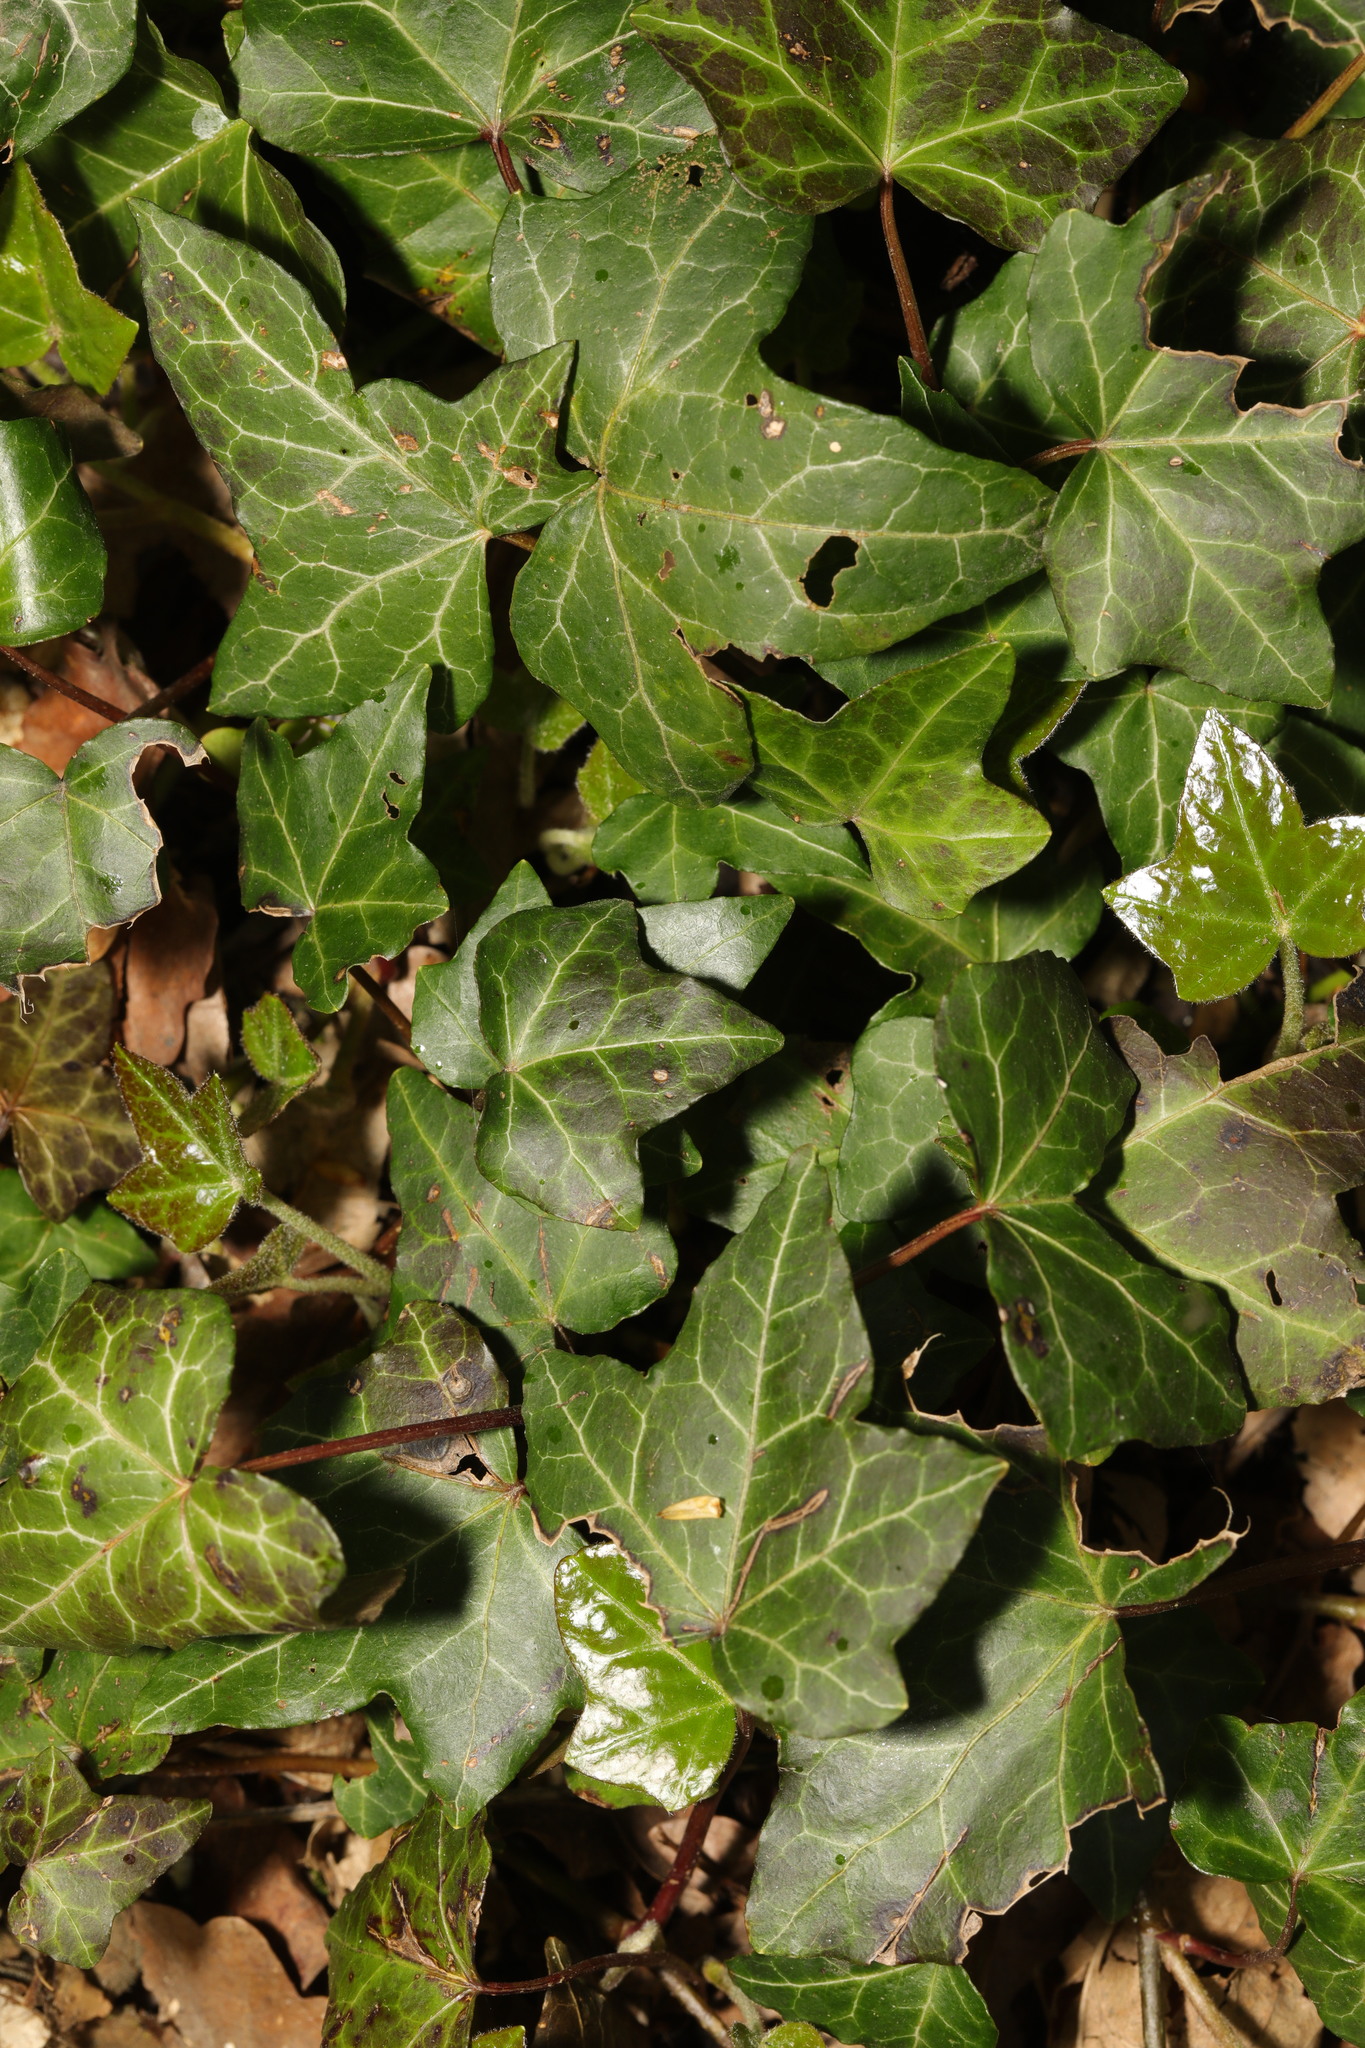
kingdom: Plantae
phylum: Tracheophyta
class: Magnoliopsida
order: Apiales
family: Araliaceae
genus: Hedera
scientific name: Hedera helix
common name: Ivy
